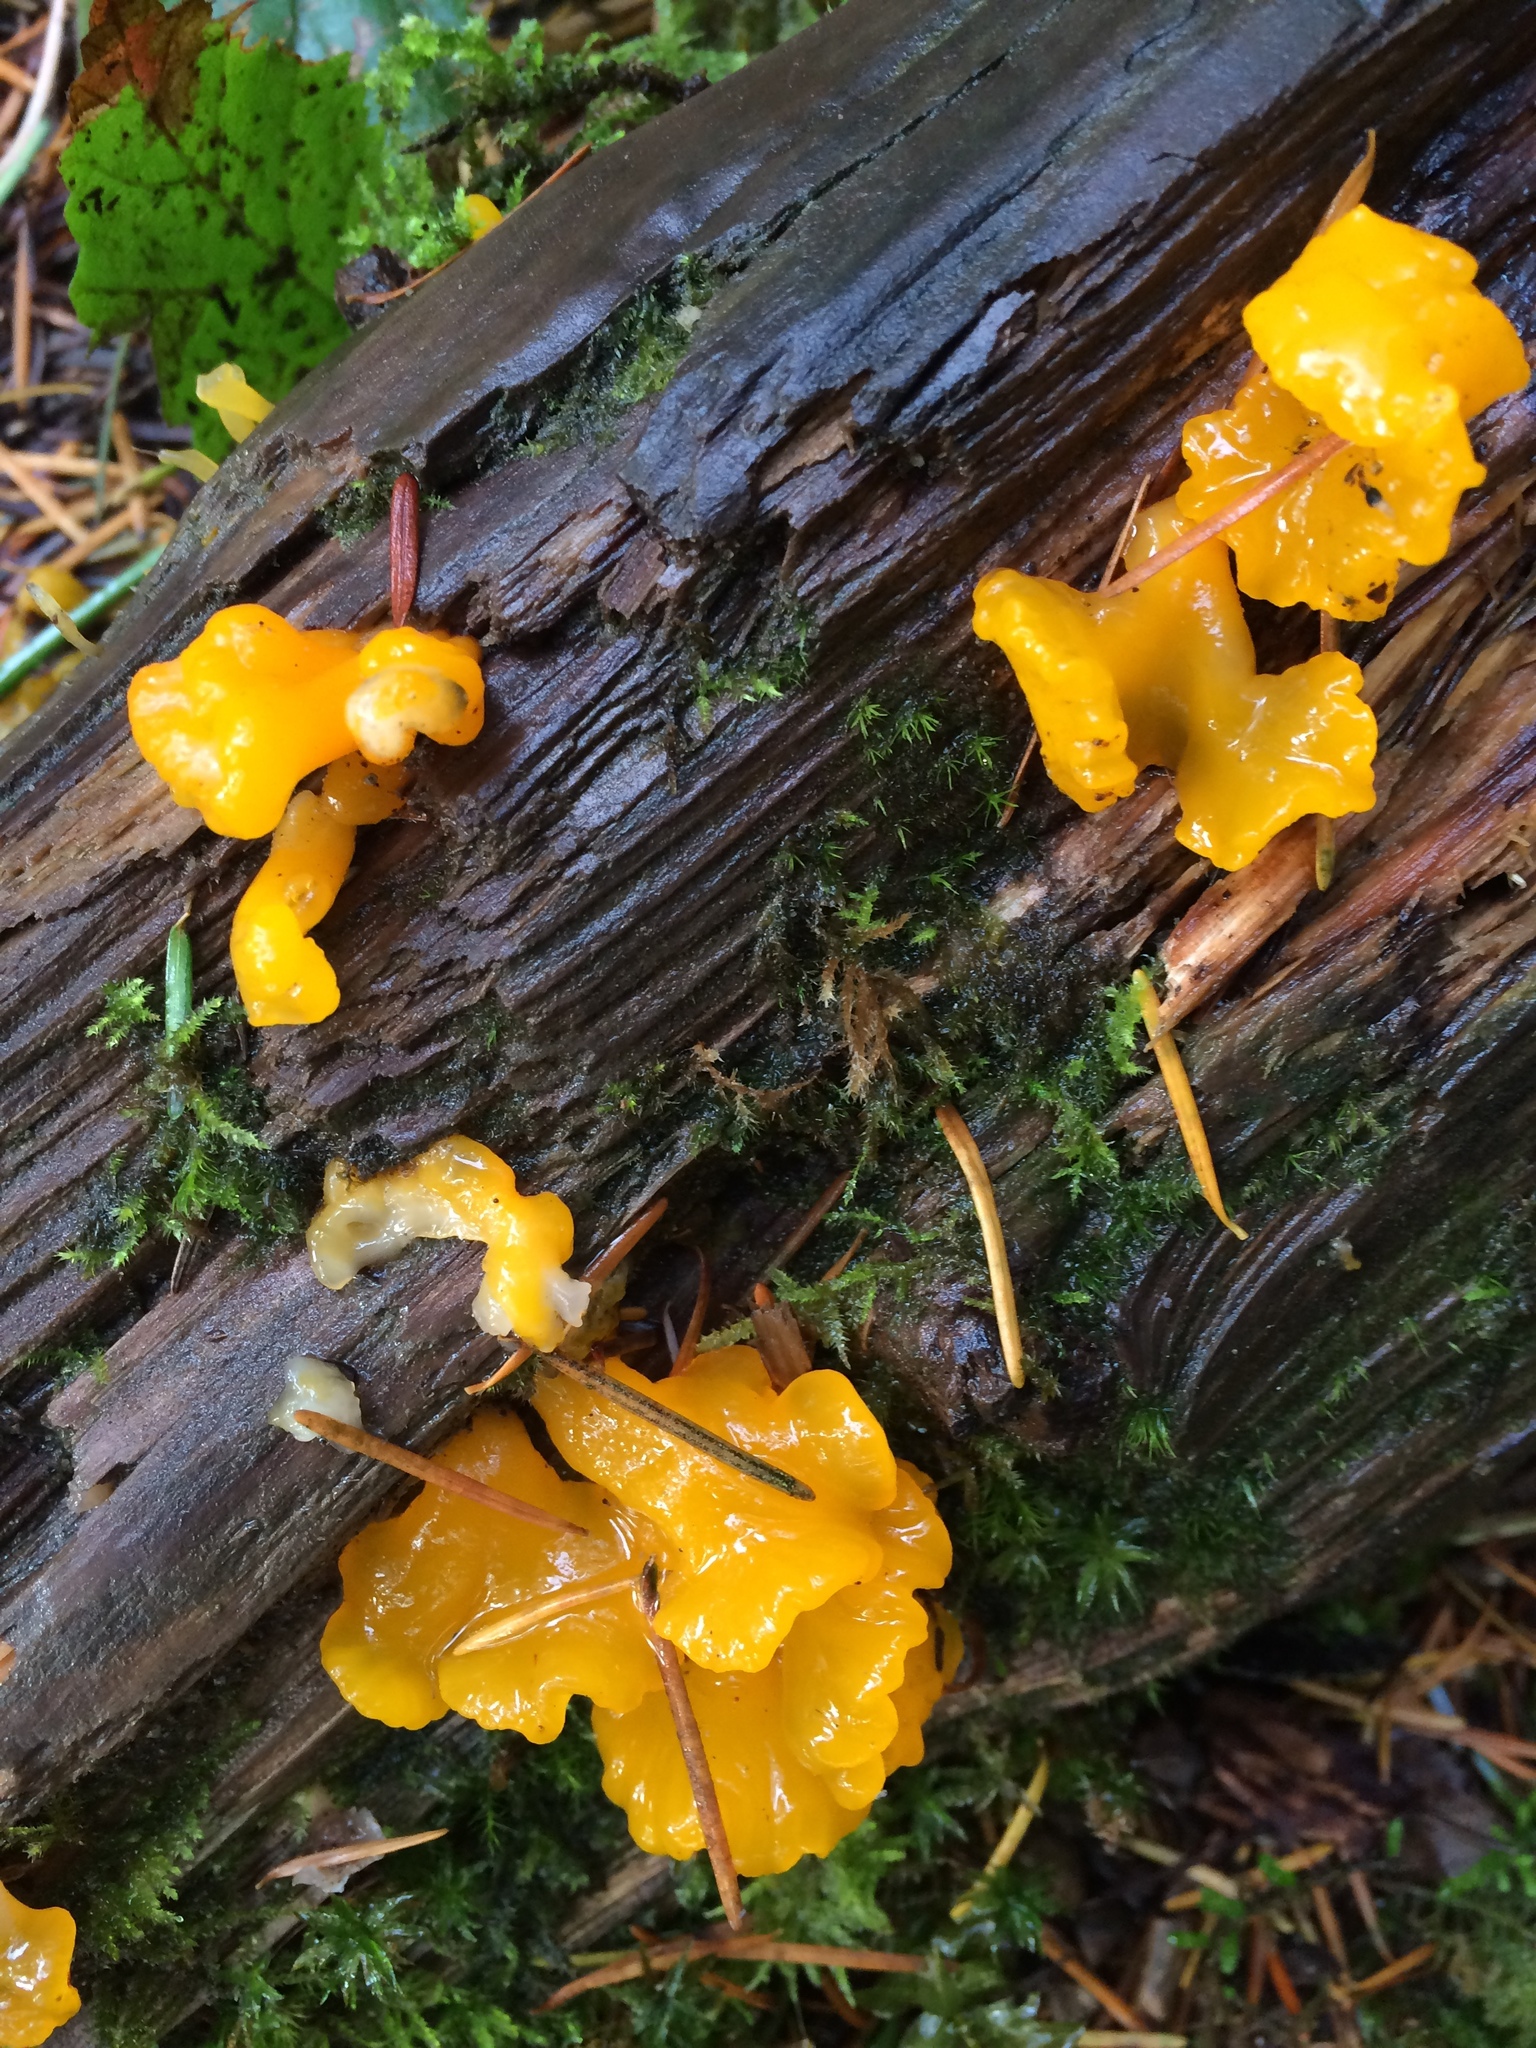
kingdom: Fungi
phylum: Basidiomycota
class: Dacrymycetes
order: Dacrymycetales
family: Dacrymycetaceae
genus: Dacrymyces
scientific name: Dacrymyces chrysospermus
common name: Orange jelly spot
